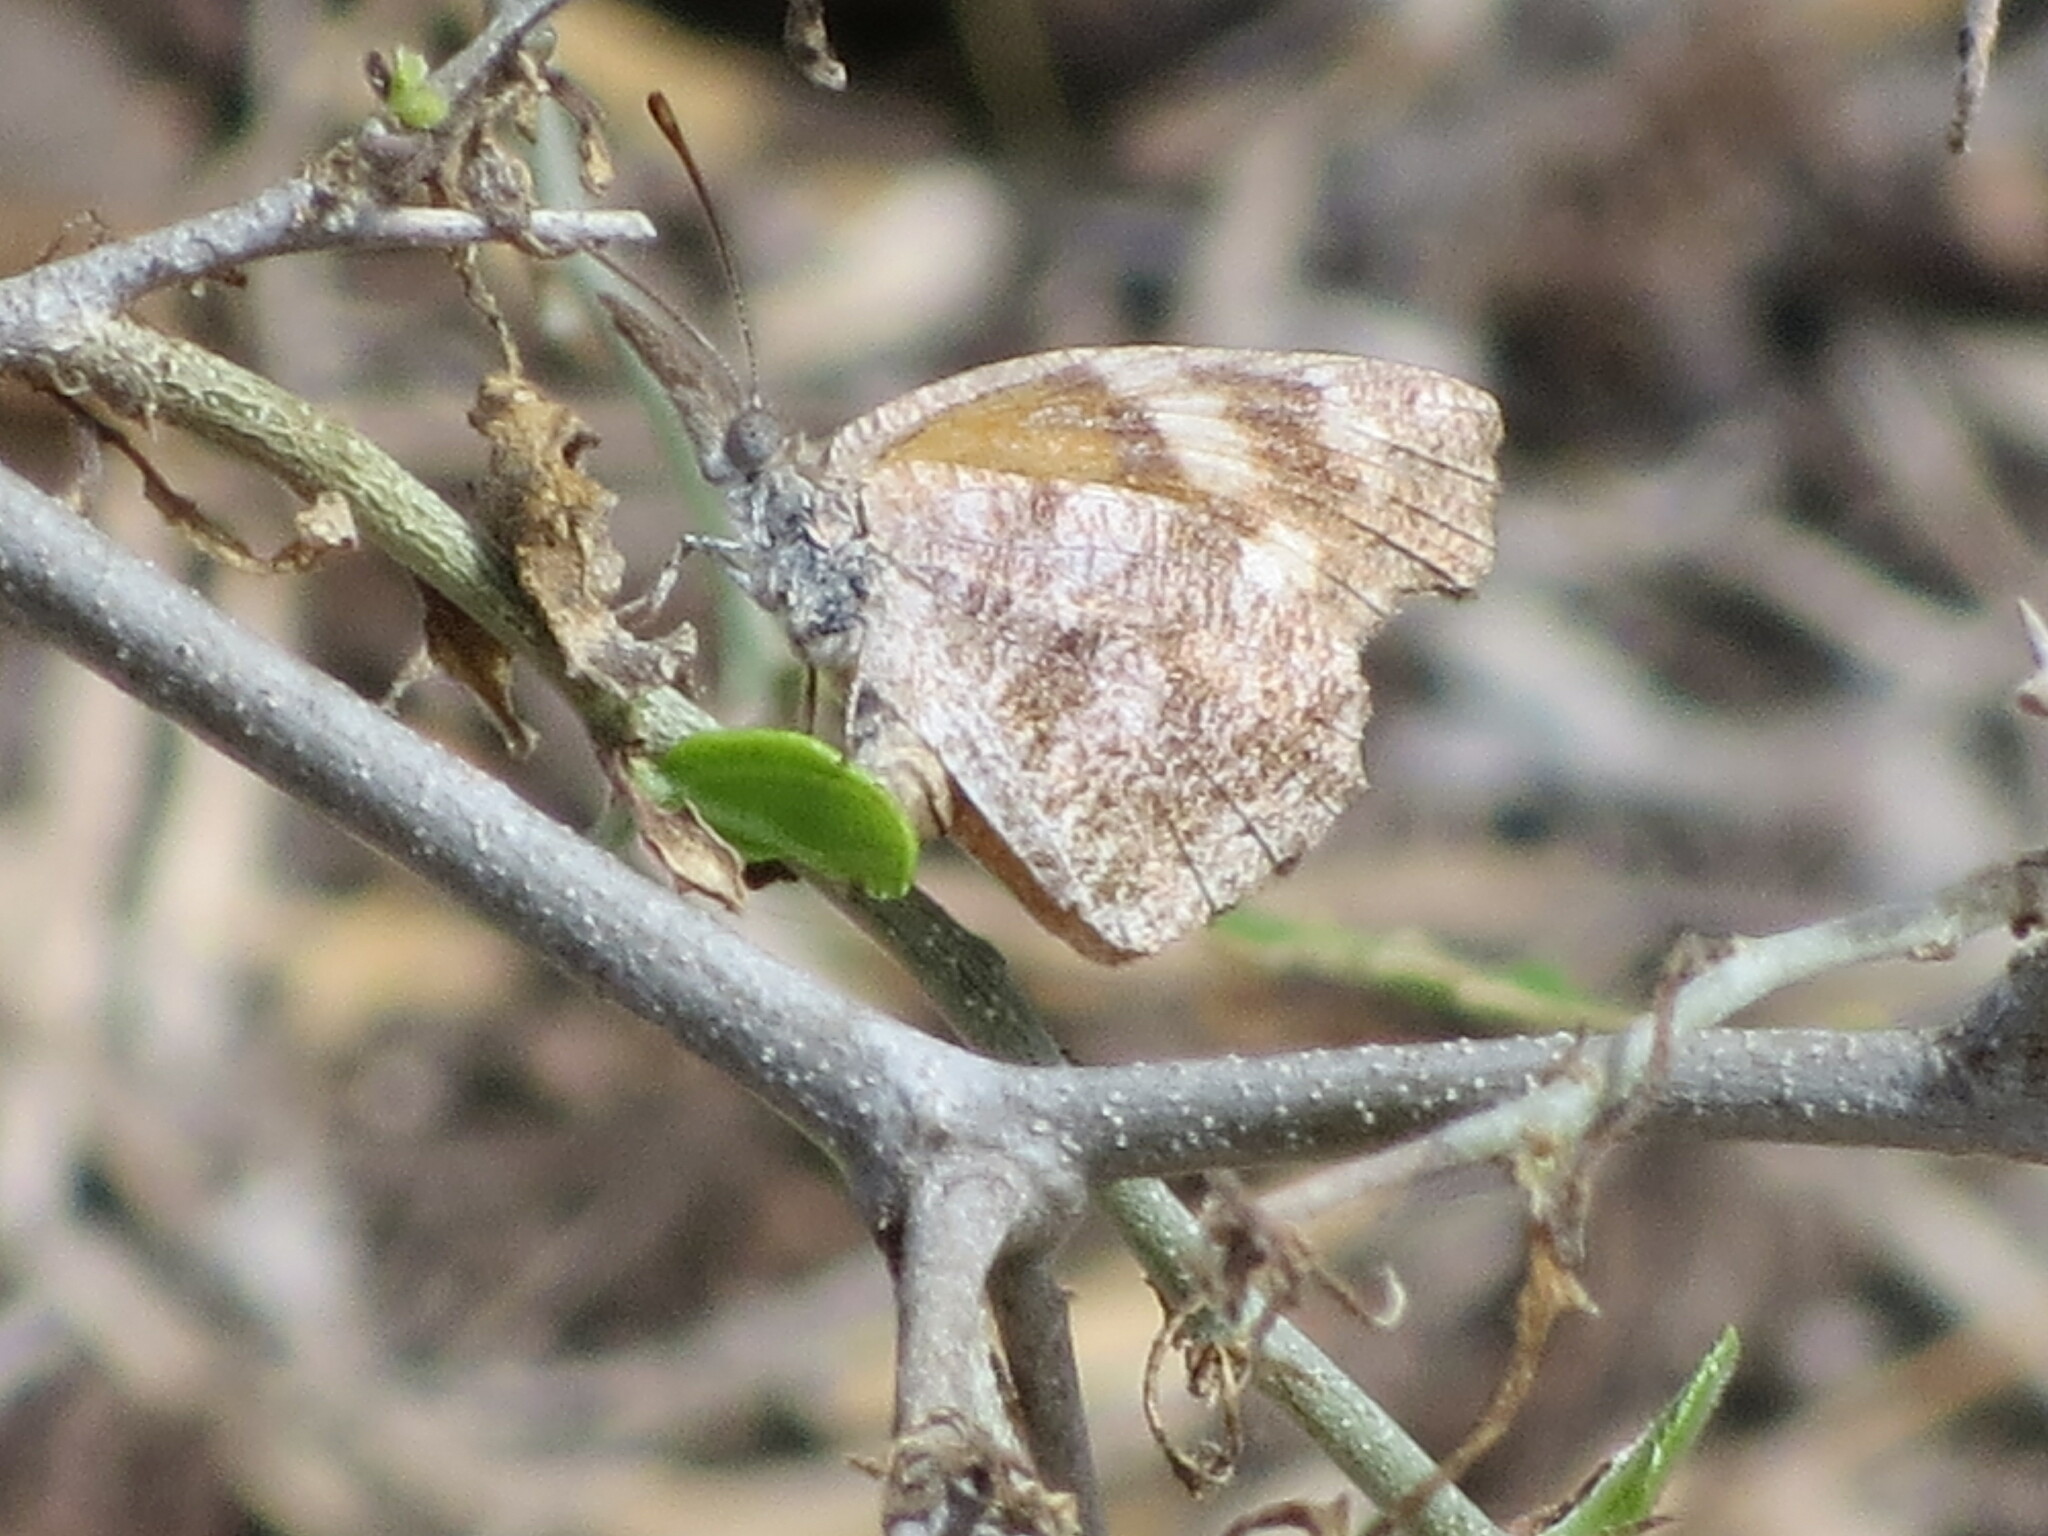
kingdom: Animalia
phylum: Arthropoda
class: Insecta
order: Lepidoptera
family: Nymphalidae
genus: Libytheana
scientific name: Libytheana carinenta
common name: American snout
